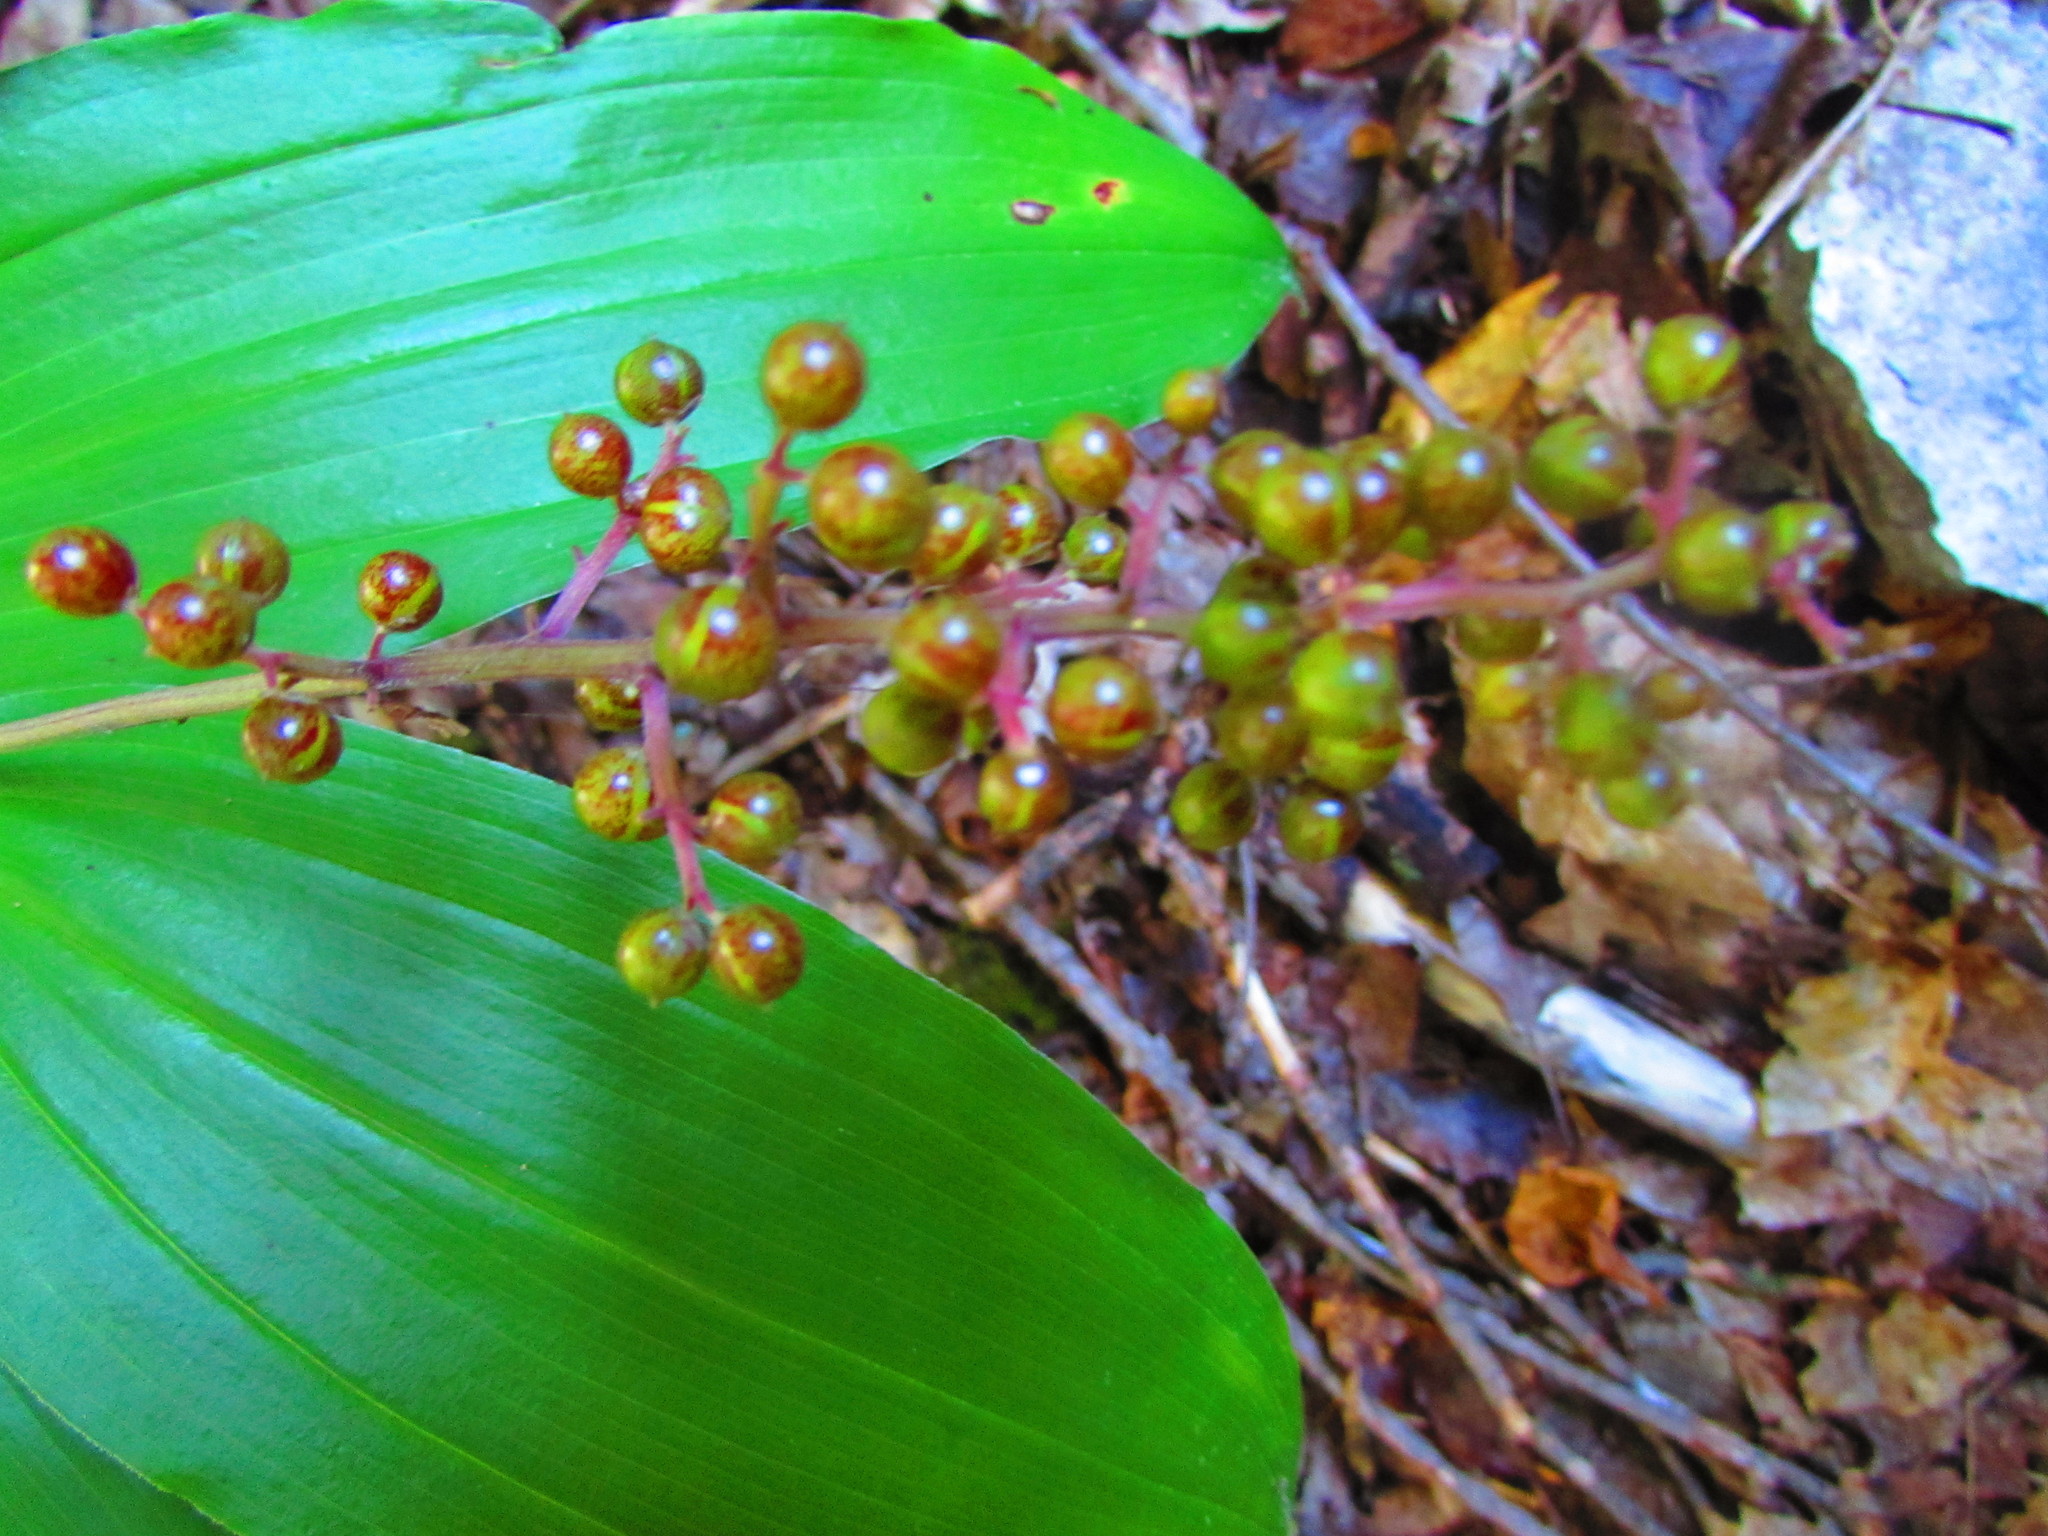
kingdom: Plantae
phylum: Tracheophyta
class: Liliopsida
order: Asparagales
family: Asparagaceae
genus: Maianthemum
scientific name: Maianthemum racemosum
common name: False spikenard
